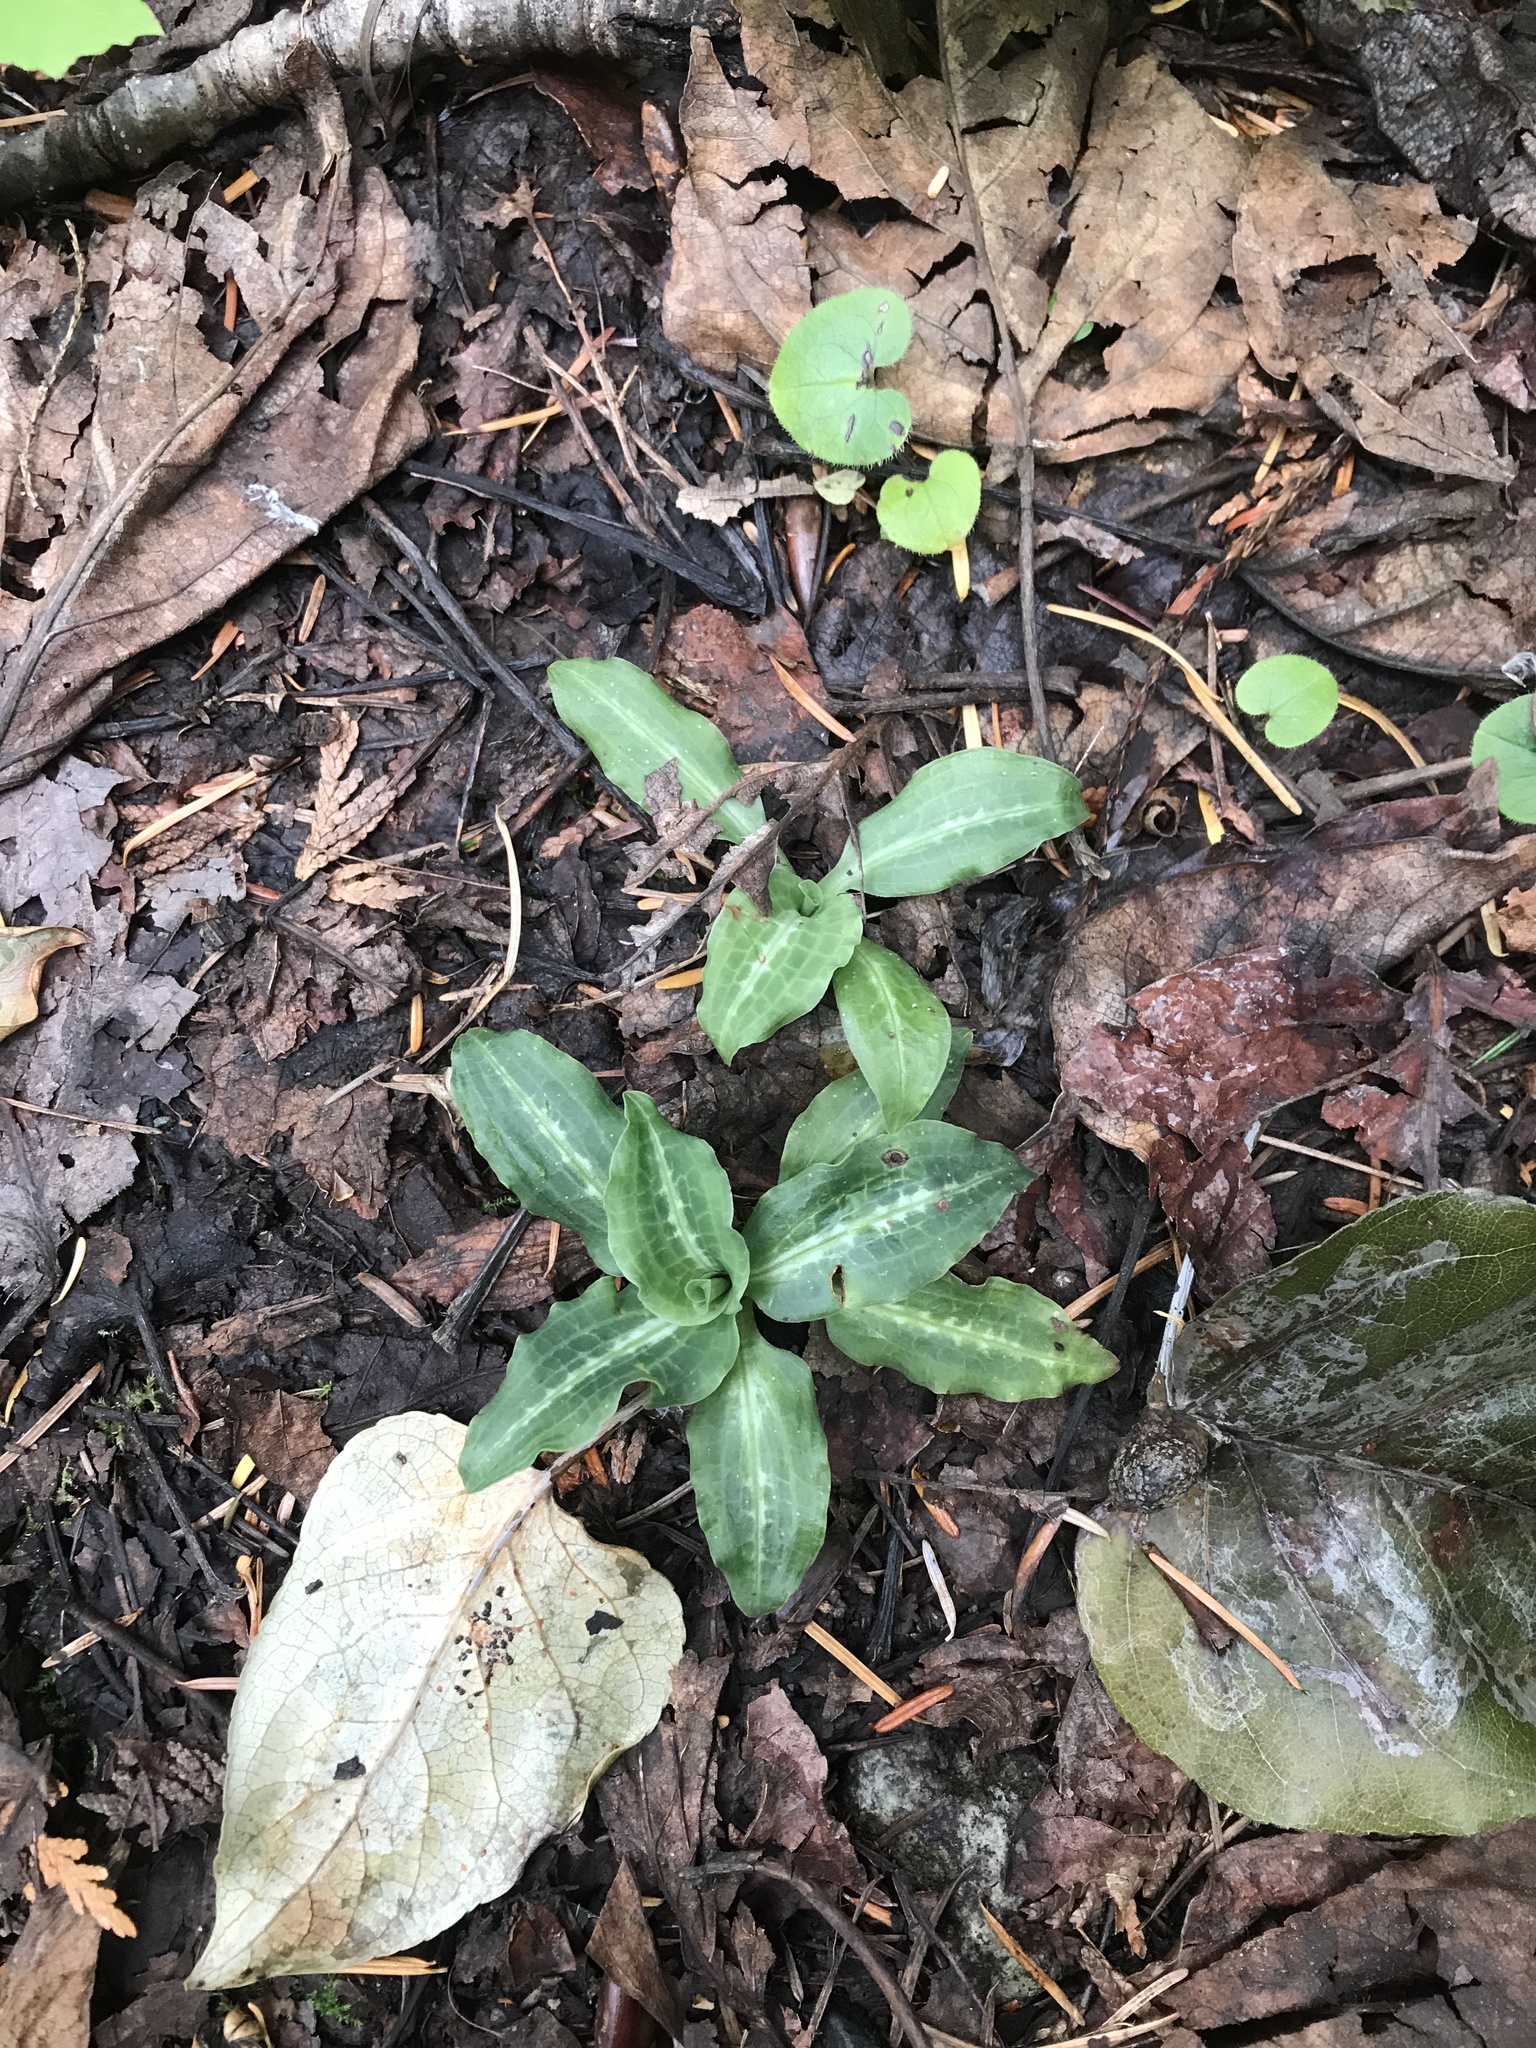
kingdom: Plantae
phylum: Tracheophyta
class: Liliopsida
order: Asparagales
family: Orchidaceae
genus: Goodyera
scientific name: Goodyera oblongifolia
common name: Giant rattlesnake-plantain
